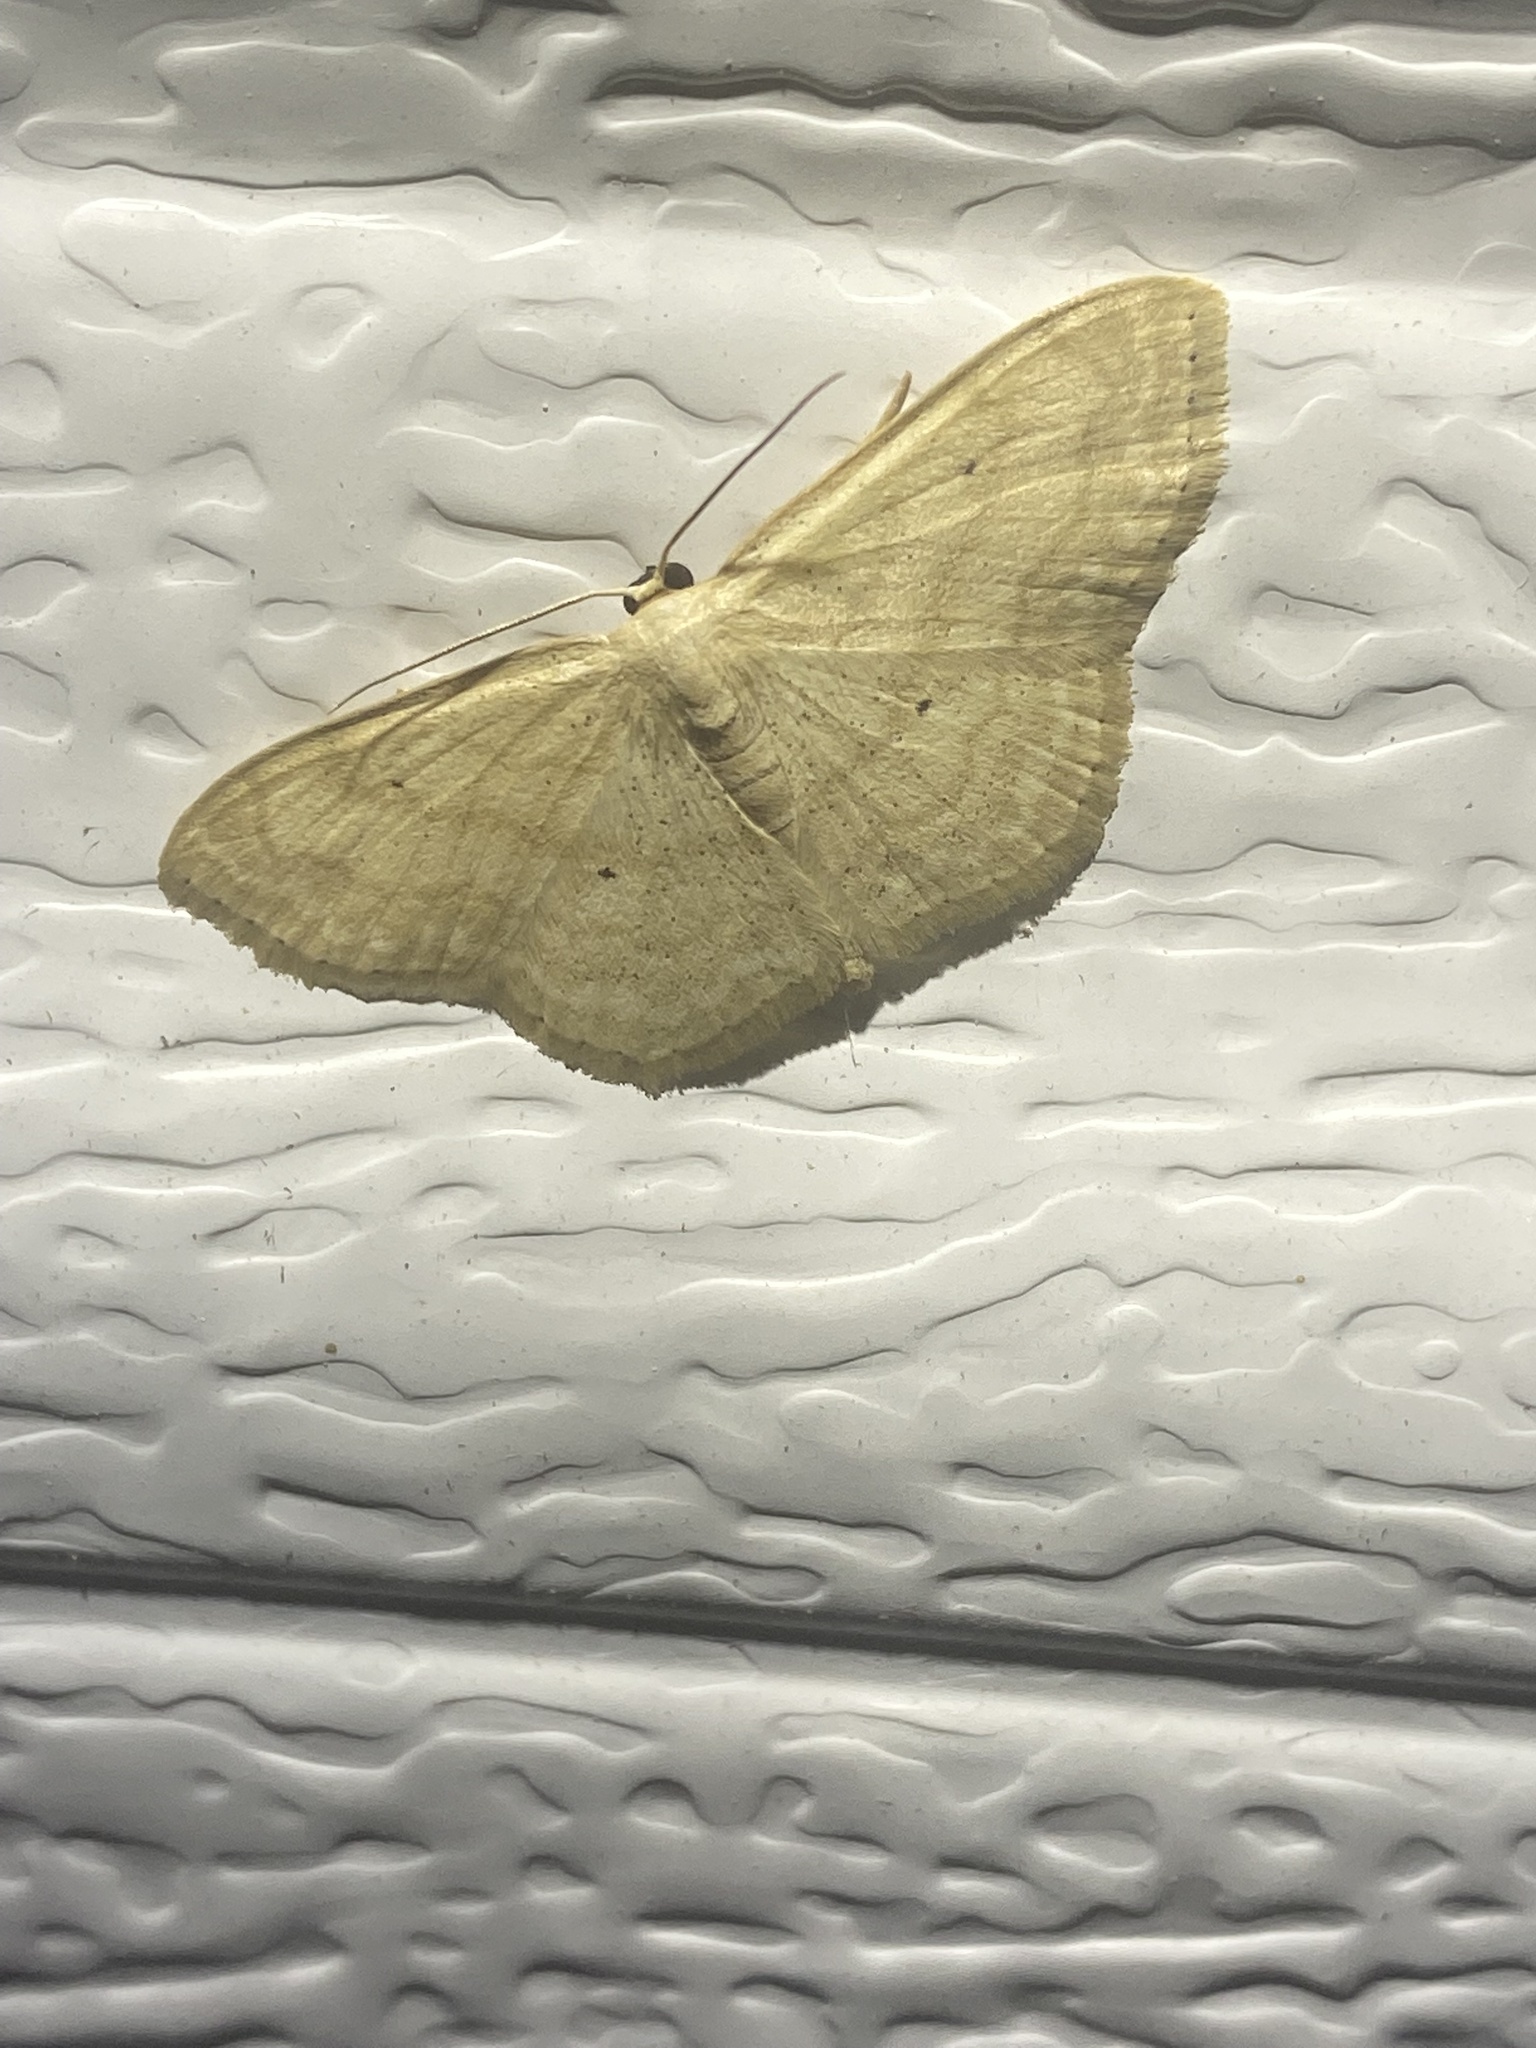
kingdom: Animalia
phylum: Arthropoda
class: Insecta
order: Lepidoptera
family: Geometridae
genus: Scopula
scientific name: Scopula limboundata
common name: Large lace border
